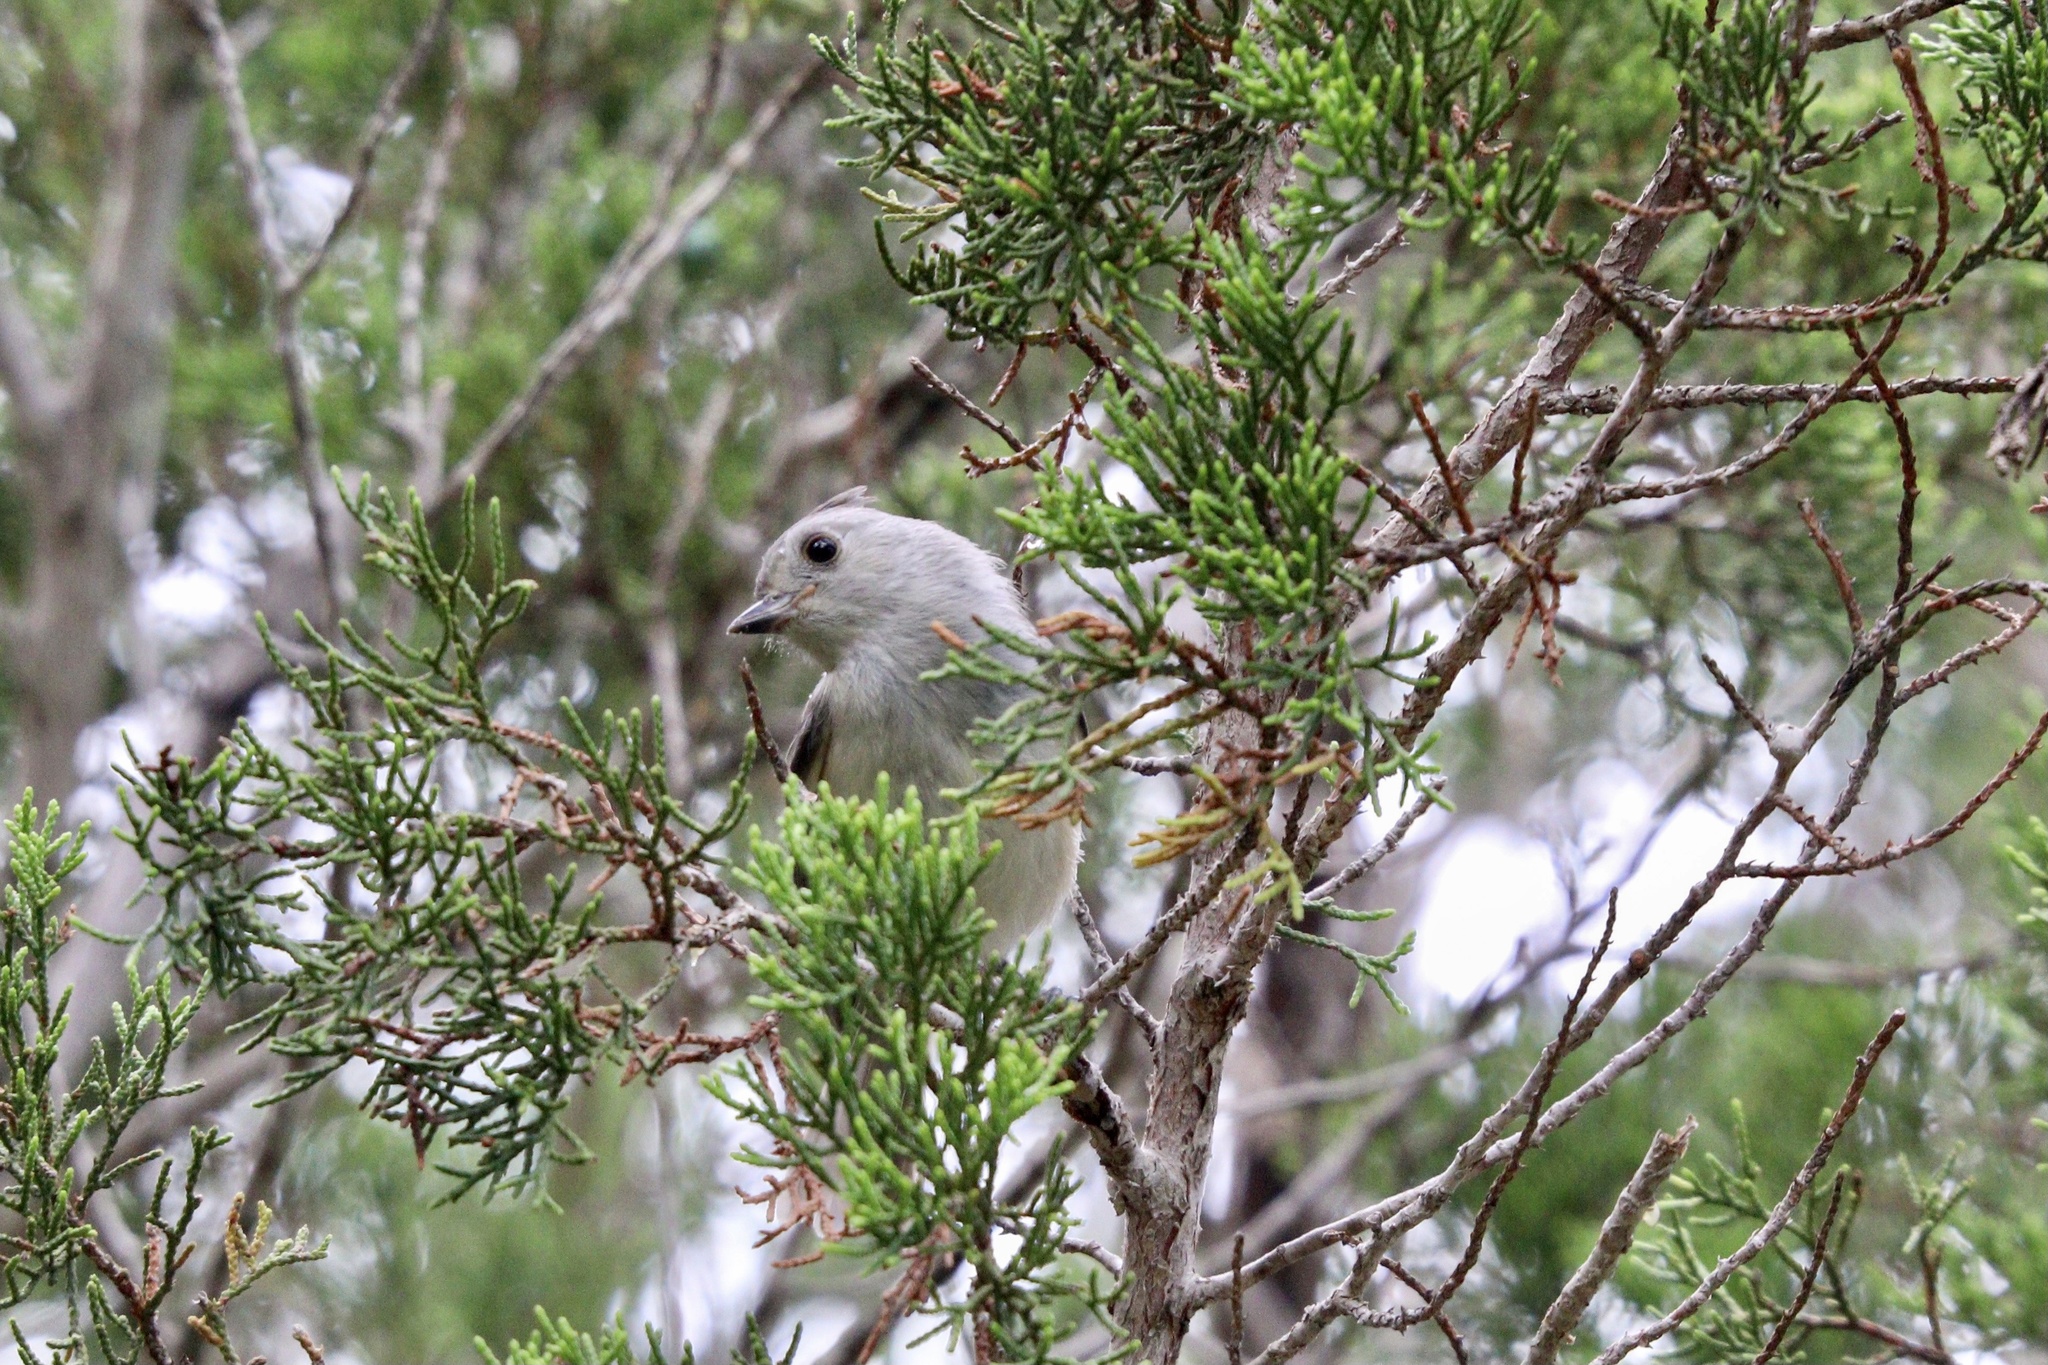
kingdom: Animalia
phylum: Chordata
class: Aves
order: Passeriformes
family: Paridae
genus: Baeolophus
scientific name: Baeolophus atricristatus
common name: Black-crested titmouse
